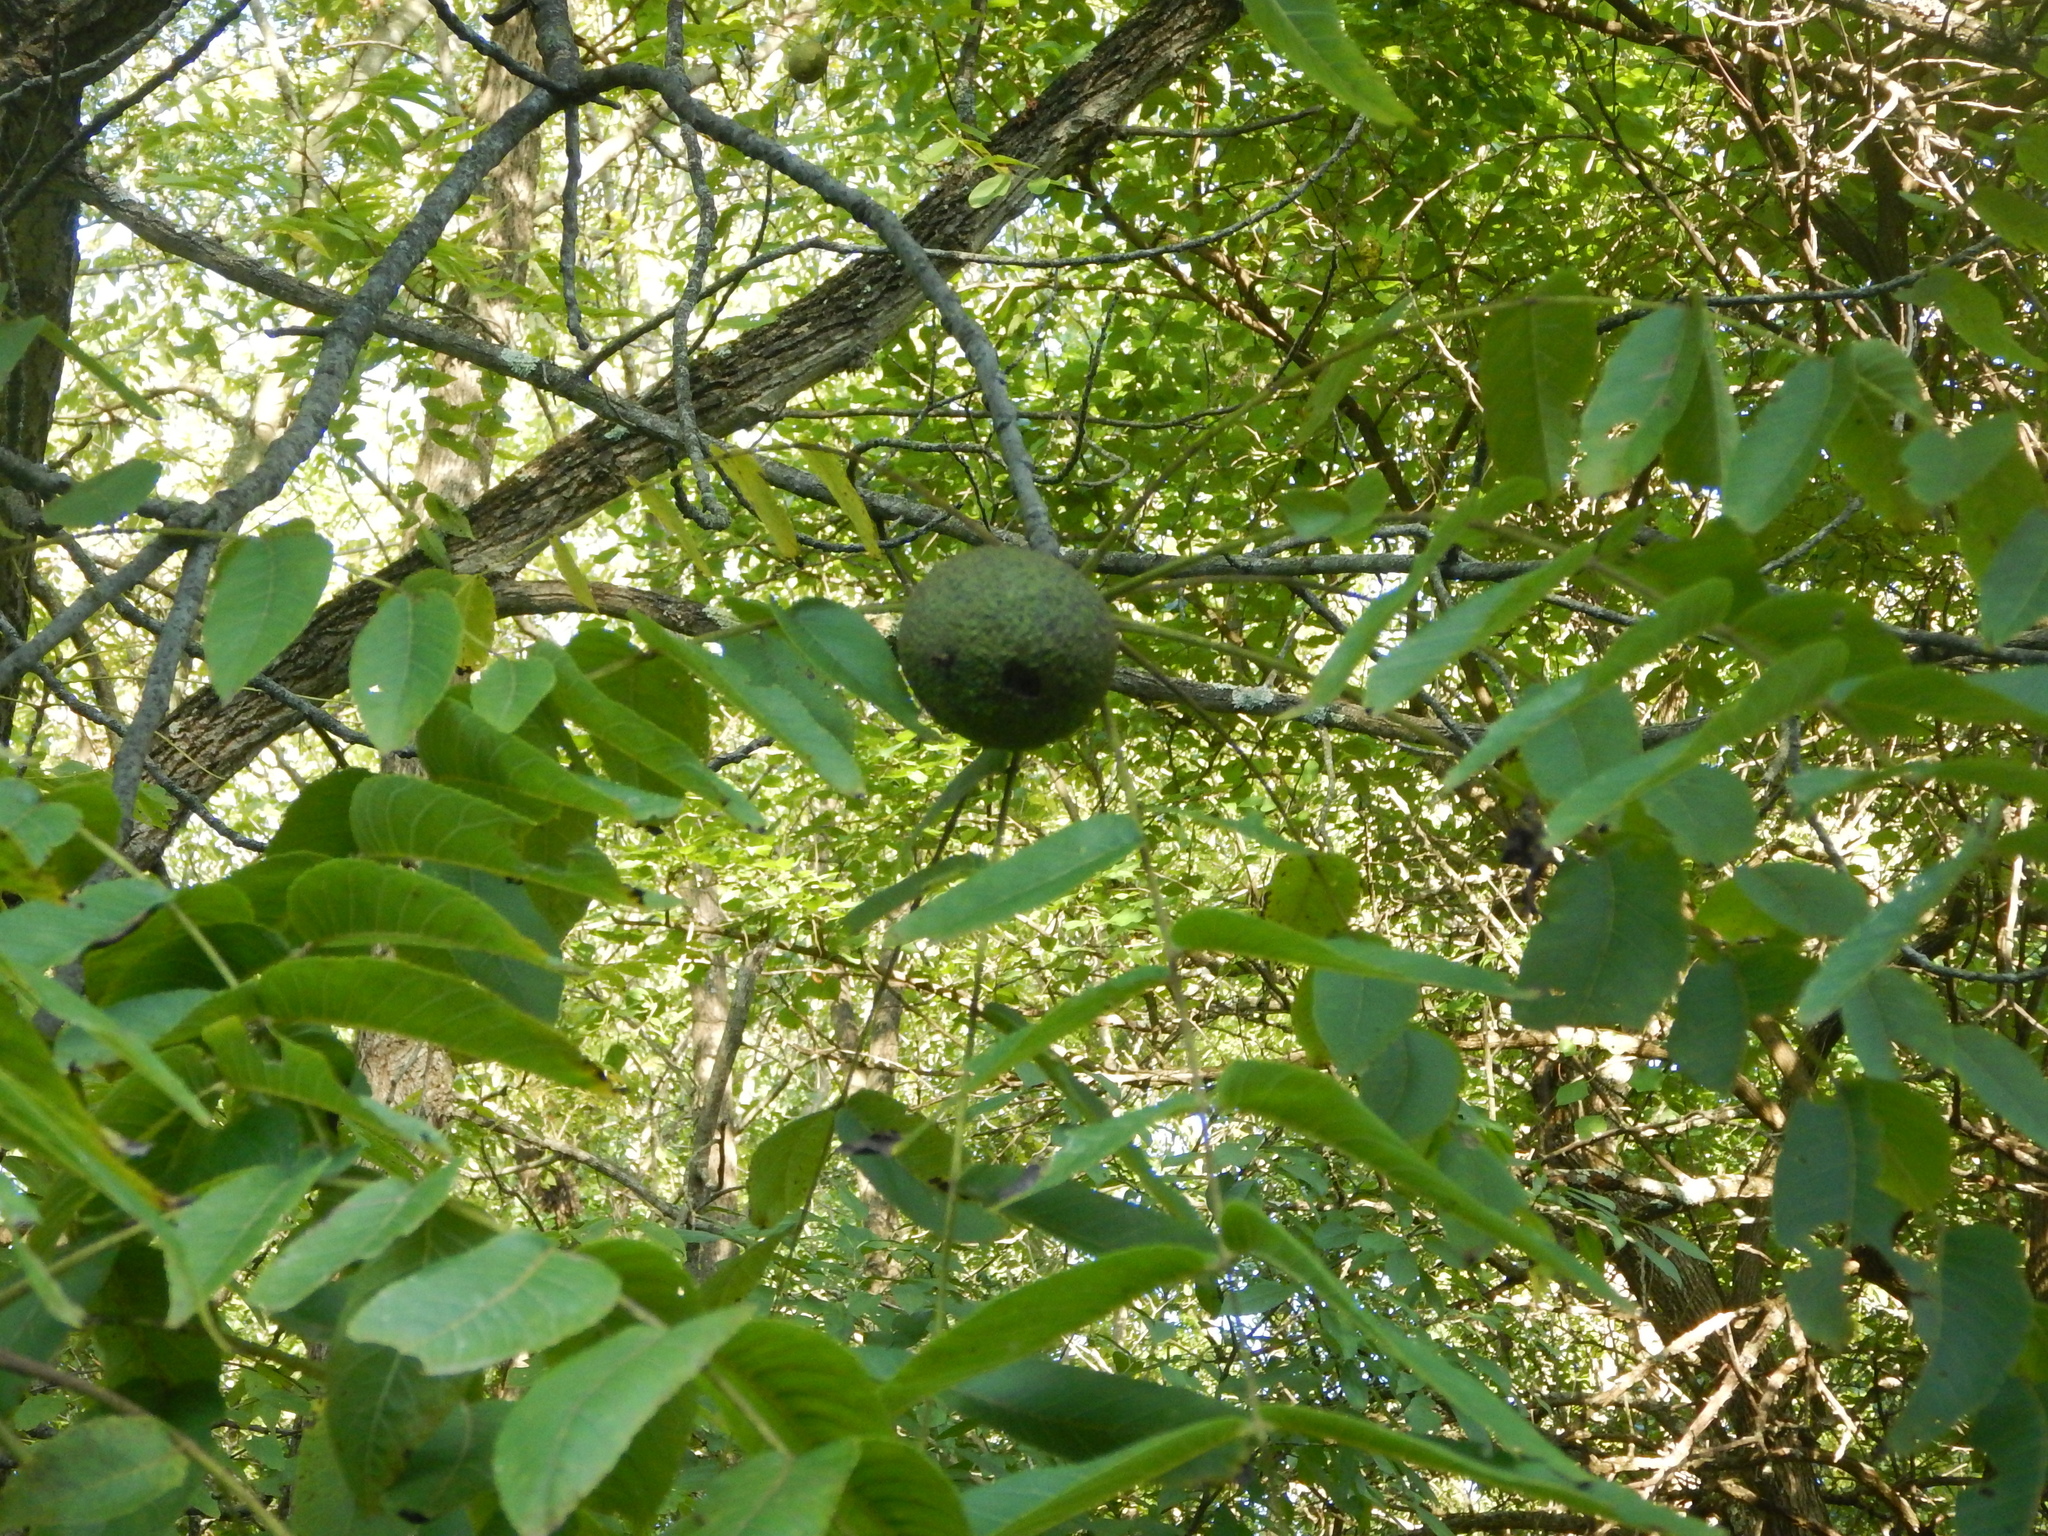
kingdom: Plantae
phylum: Tracheophyta
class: Magnoliopsida
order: Fagales
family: Juglandaceae
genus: Juglans
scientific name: Juglans nigra
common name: Black walnut
